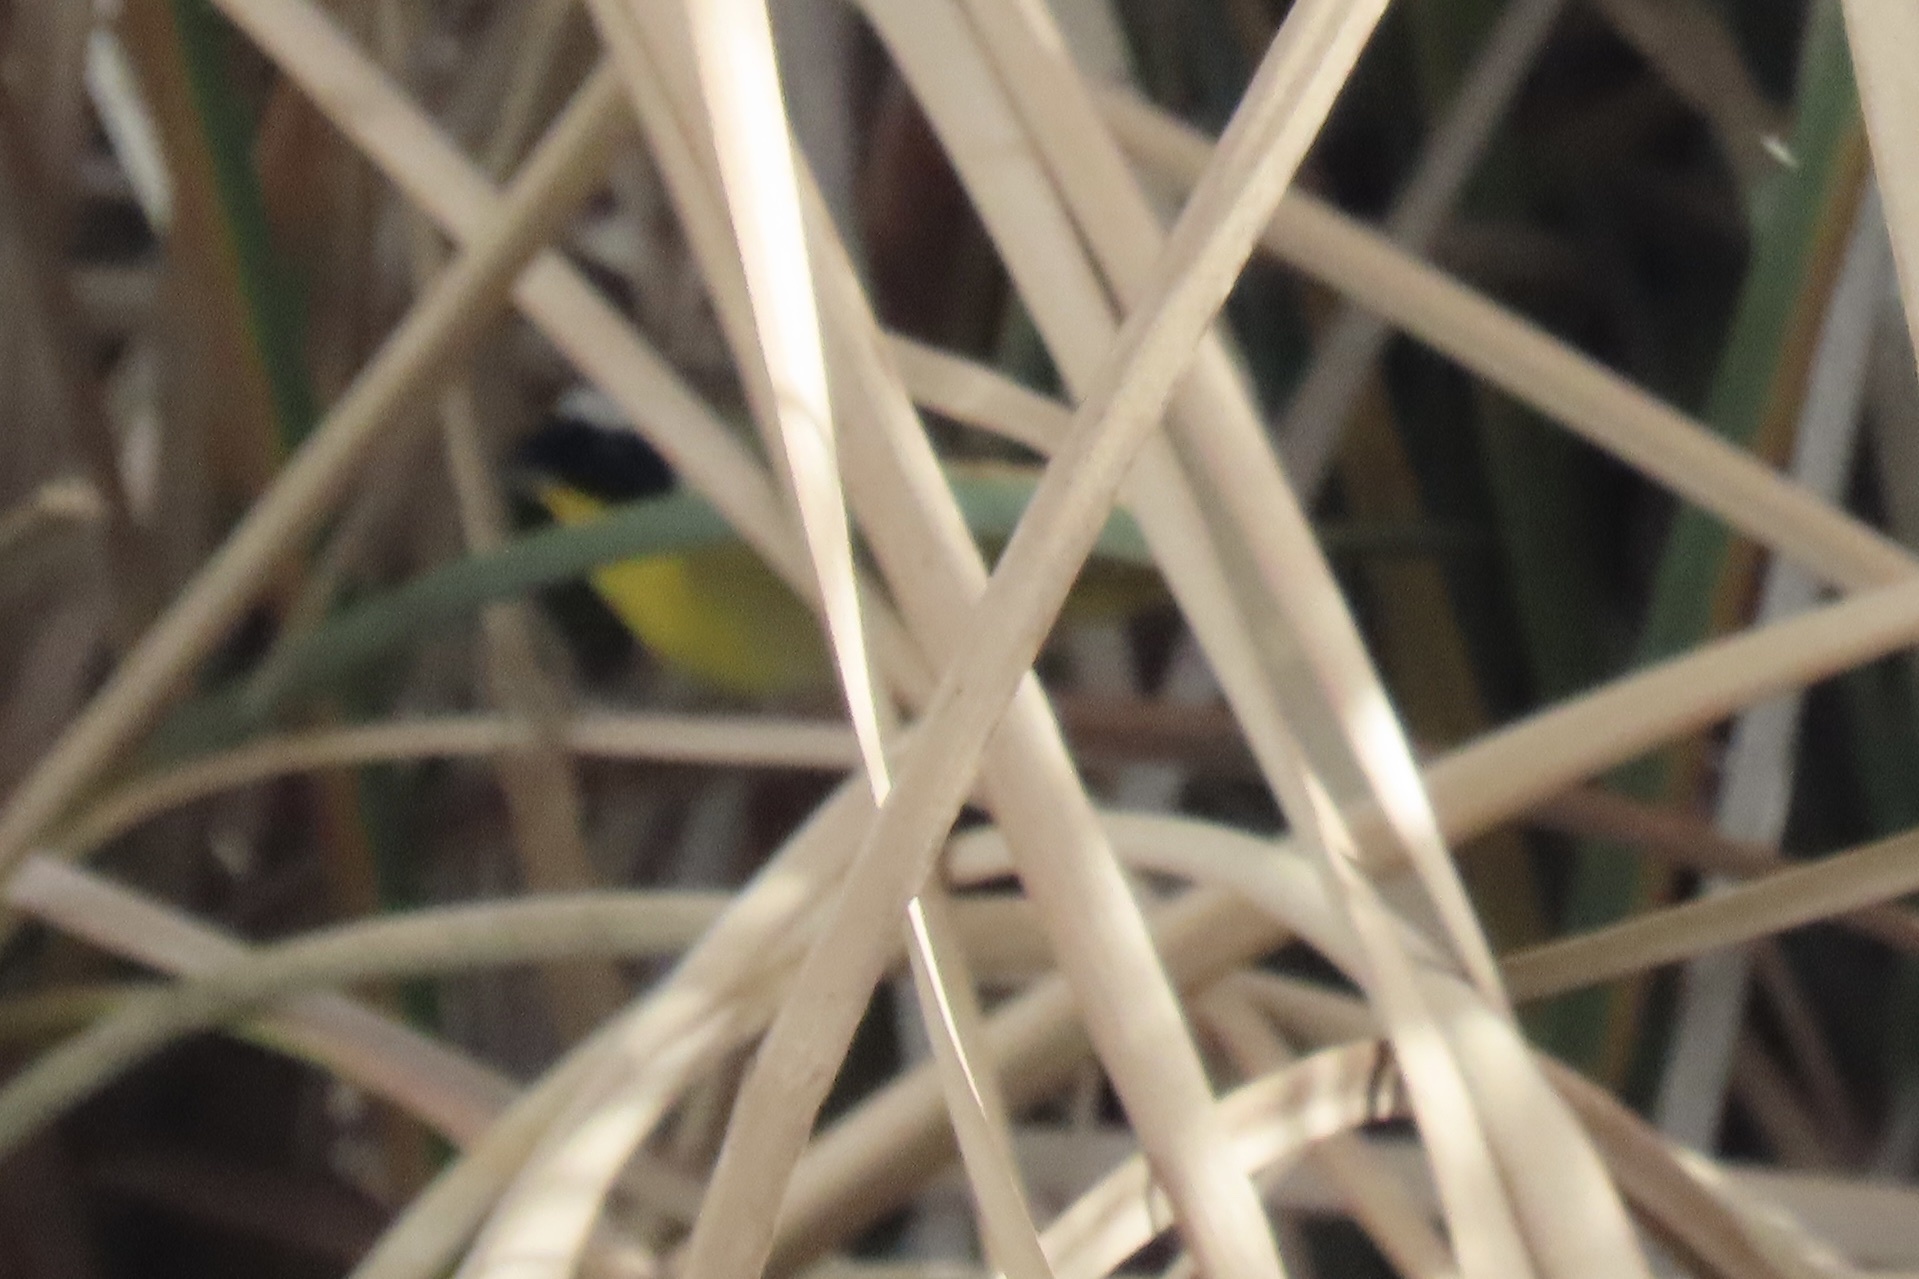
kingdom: Animalia
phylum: Chordata
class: Aves
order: Passeriformes
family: Parulidae
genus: Geothlypis
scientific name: Geothlypis trichas
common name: Common yellowthroat
